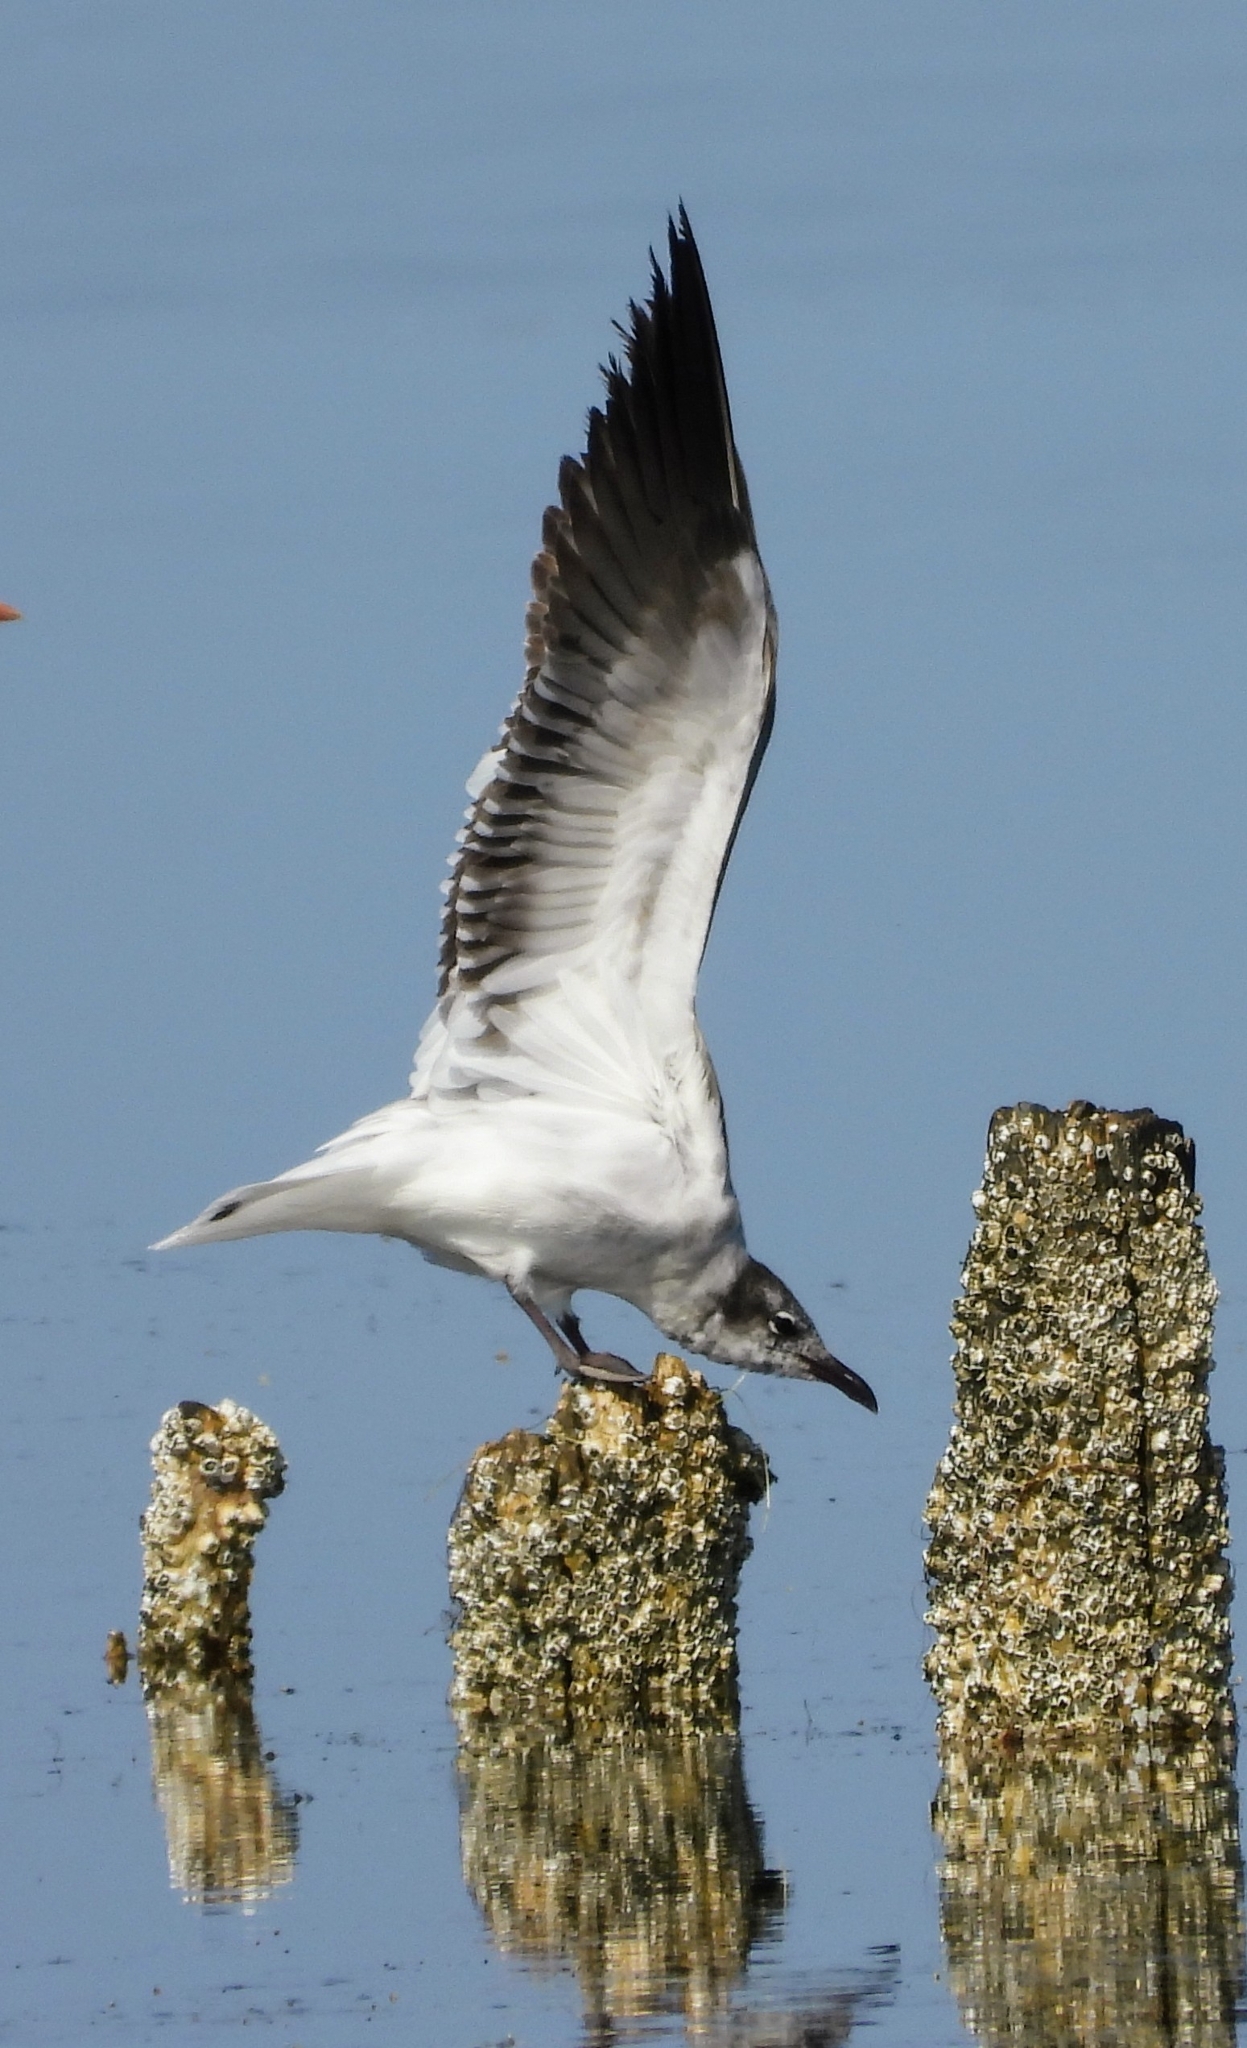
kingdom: Animalia
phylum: Chordata
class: Aves
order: Charadriiformes
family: Laridae
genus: Leucophaeus
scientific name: Leucophaeus atricilla
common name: Laughing gull
